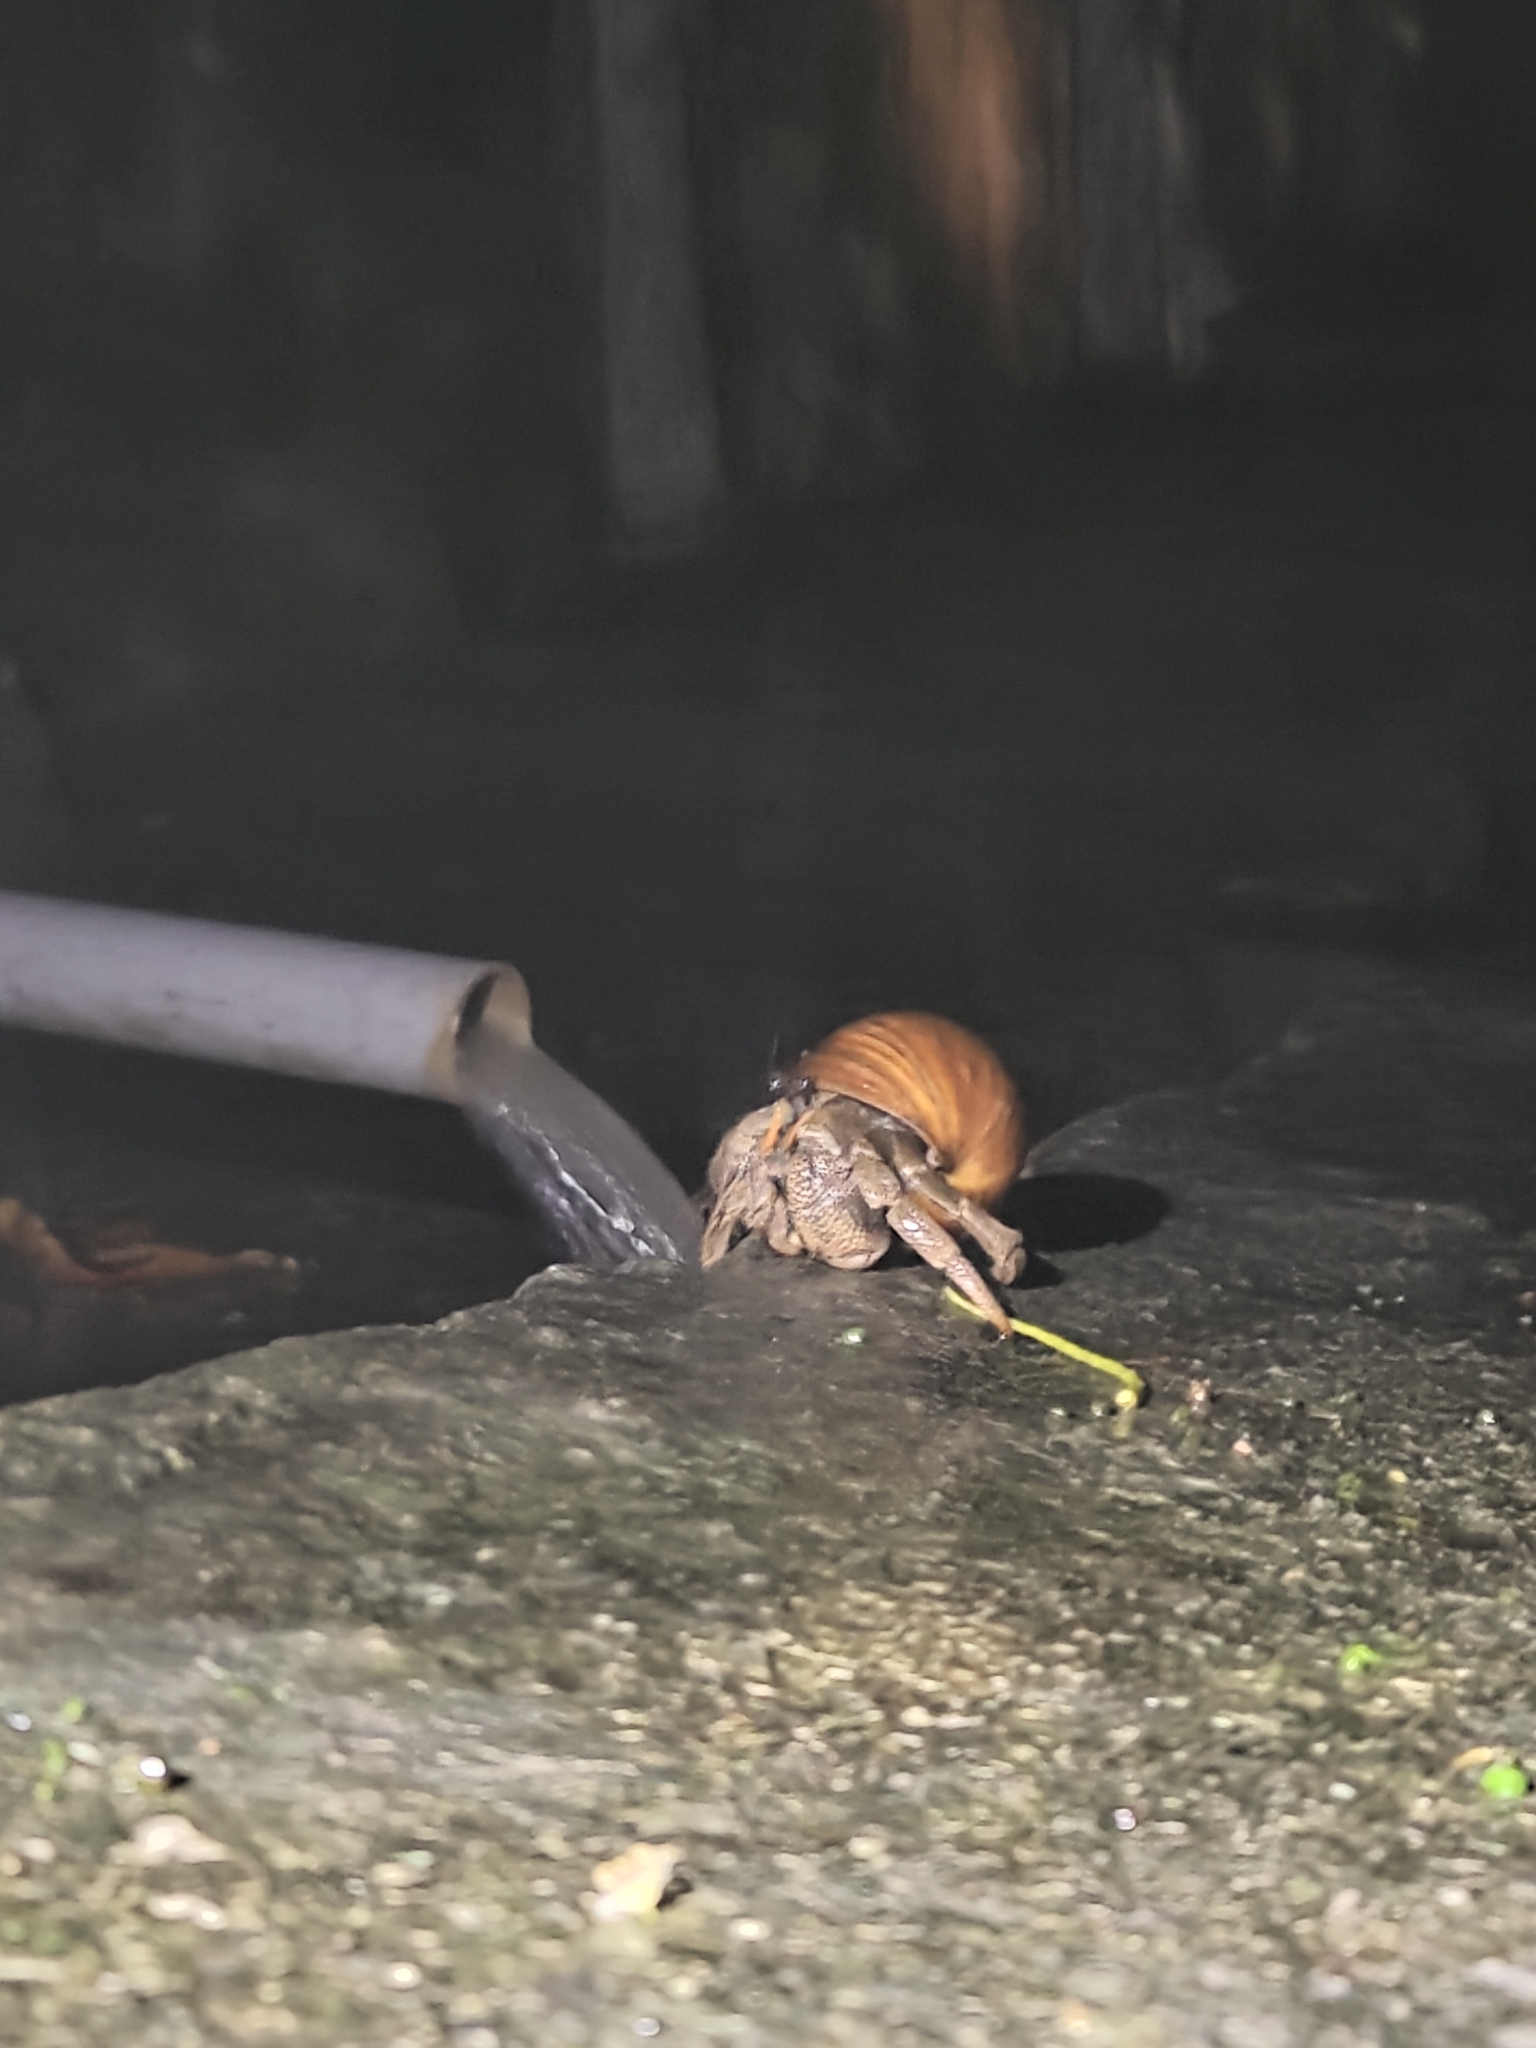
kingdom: Animalia
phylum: Arthropoda
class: Malacostraca
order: Decapoda
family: Coenobitidae
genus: Coenobita
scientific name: Coenobita cavipes
